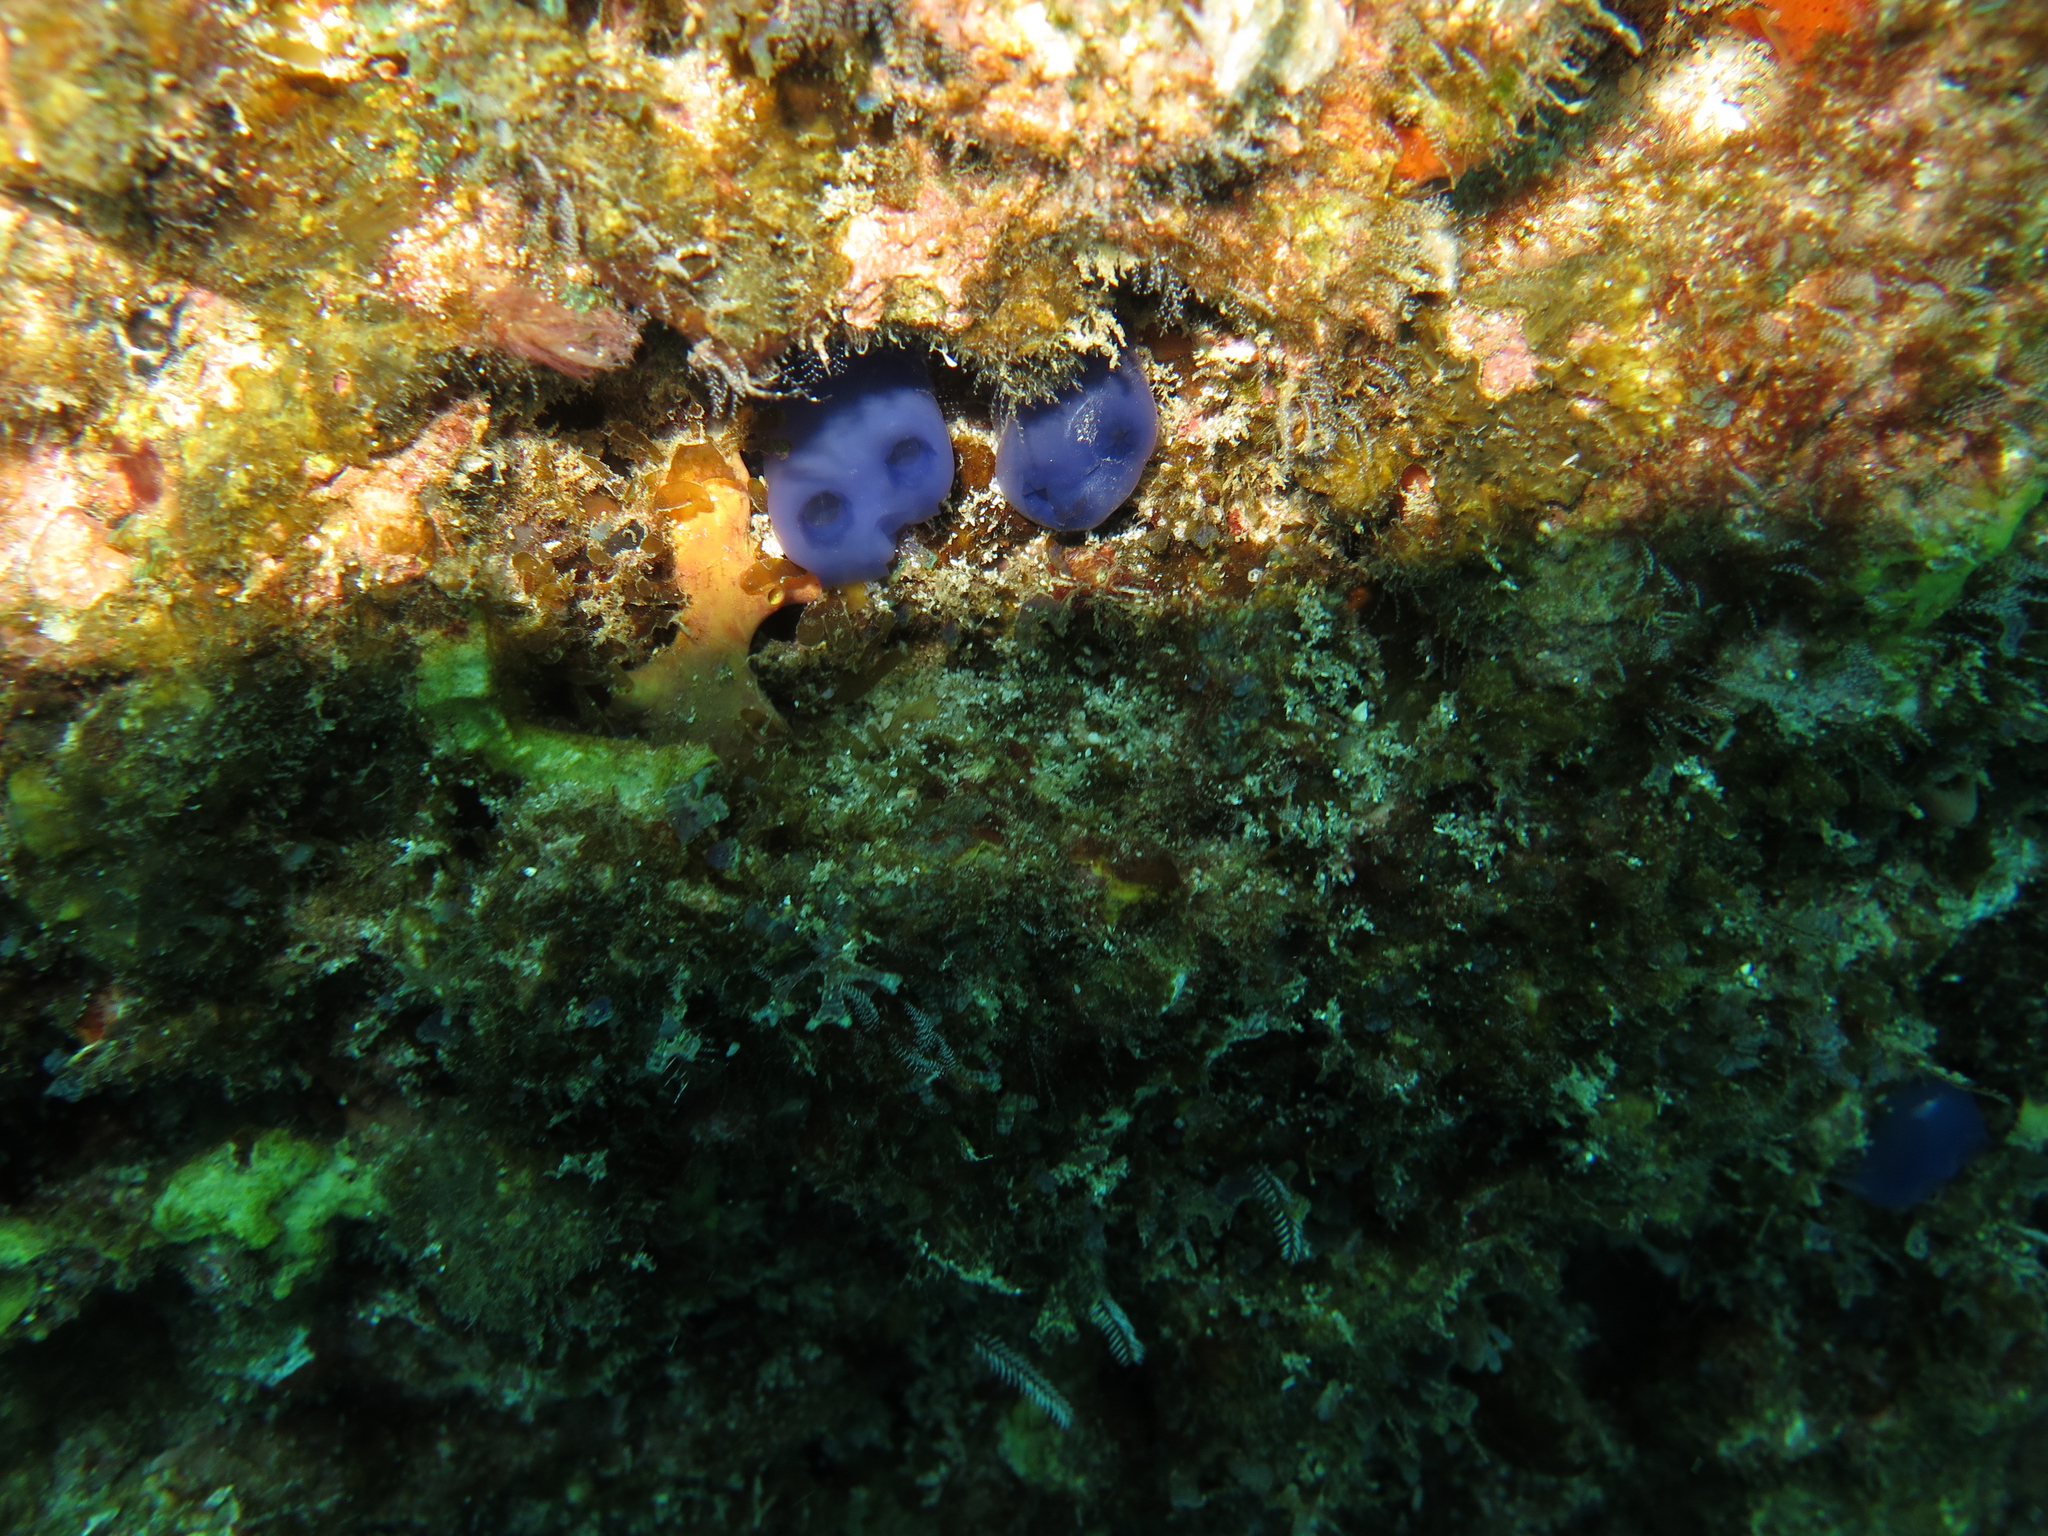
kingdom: Animalia
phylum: Chordata
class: Ascidiacea
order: Aplousobranchia
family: Diazonidae
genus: Rhopalaea
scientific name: Rhopalaea birkelandi
